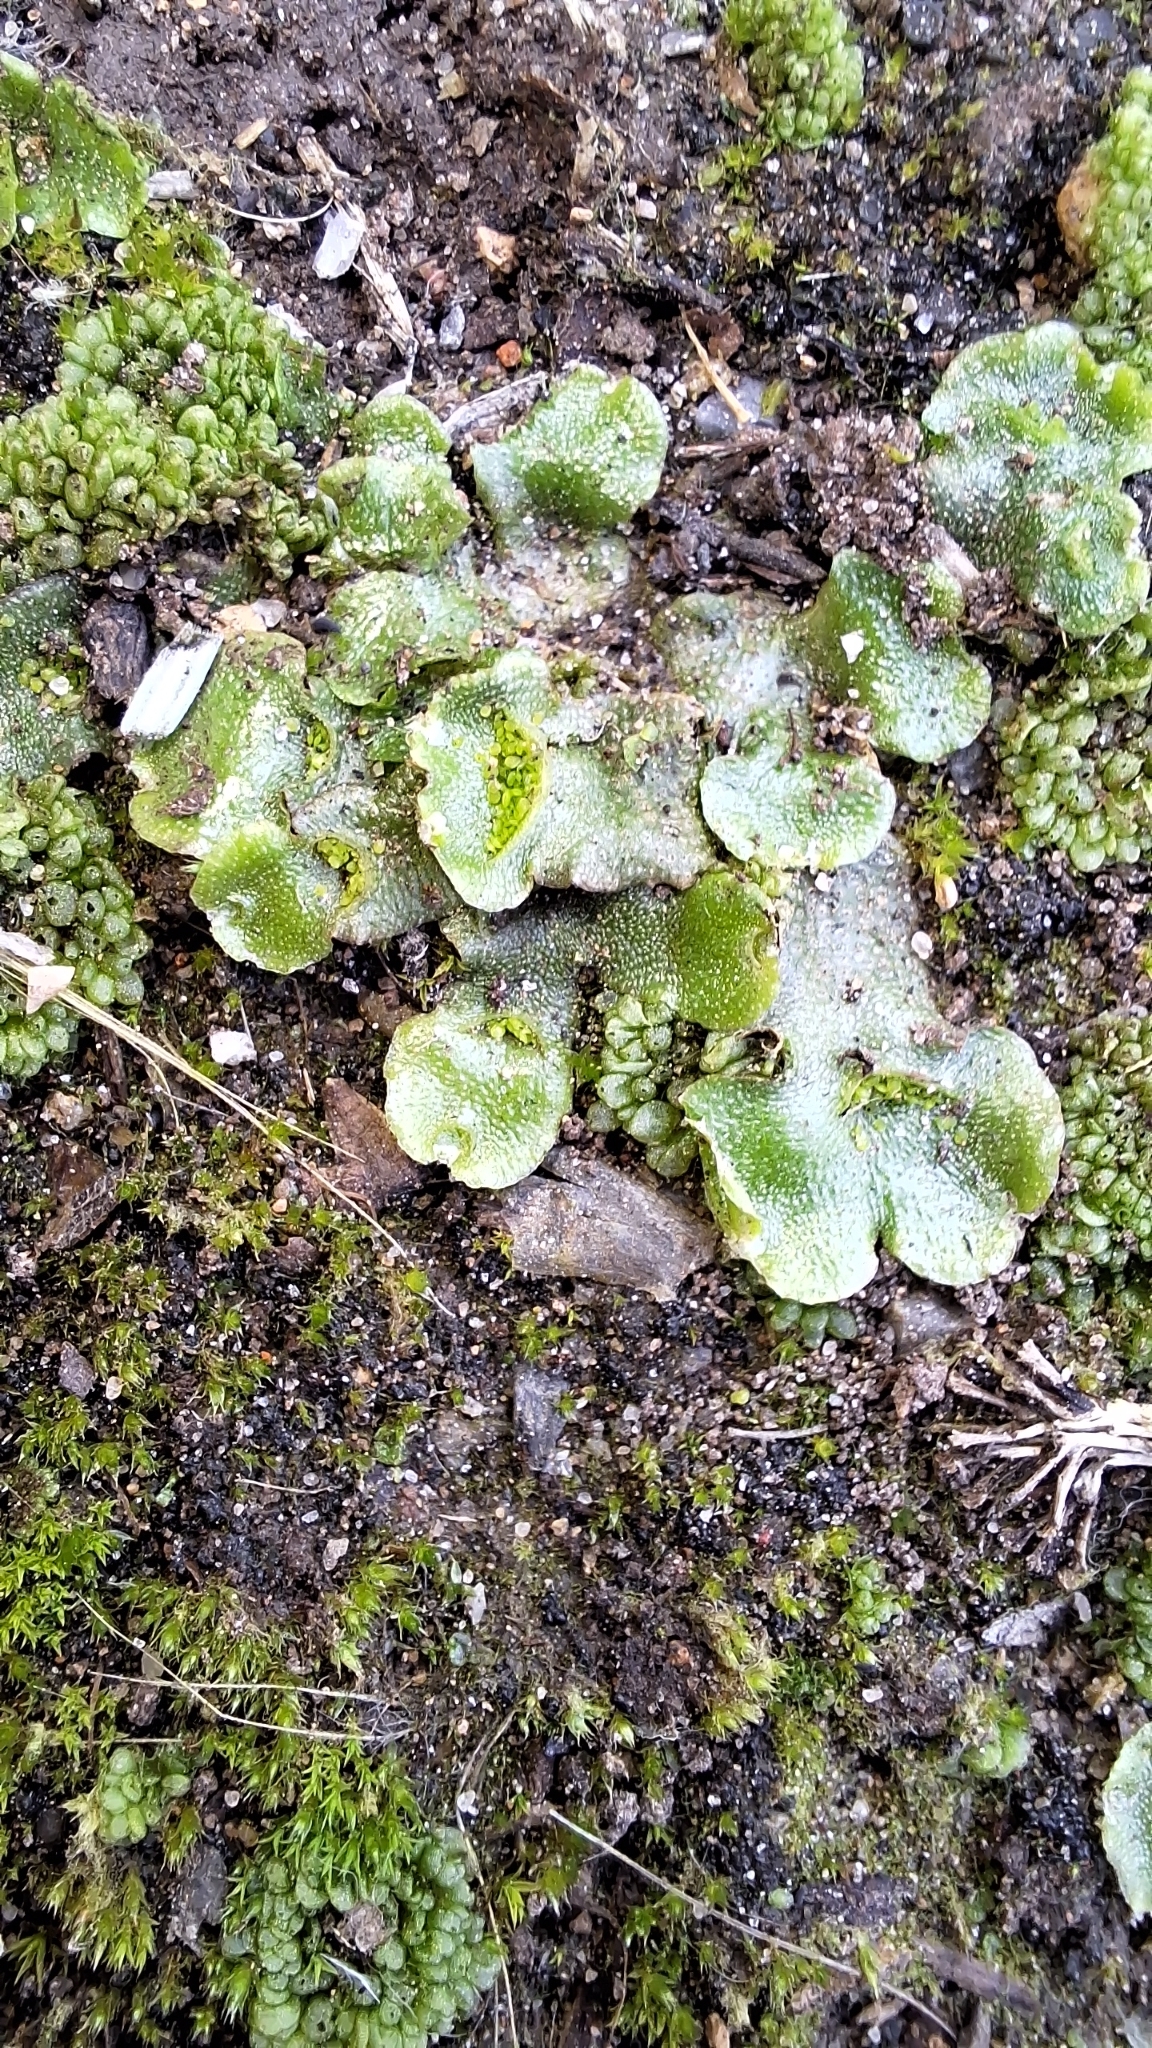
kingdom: Plantae
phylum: Marchantiophyta
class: Marchantiopsida
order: Lunulariales
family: Lunulariaceae
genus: Lunularia
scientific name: Lunularia cruciata
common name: Crescent-cup liverwort
